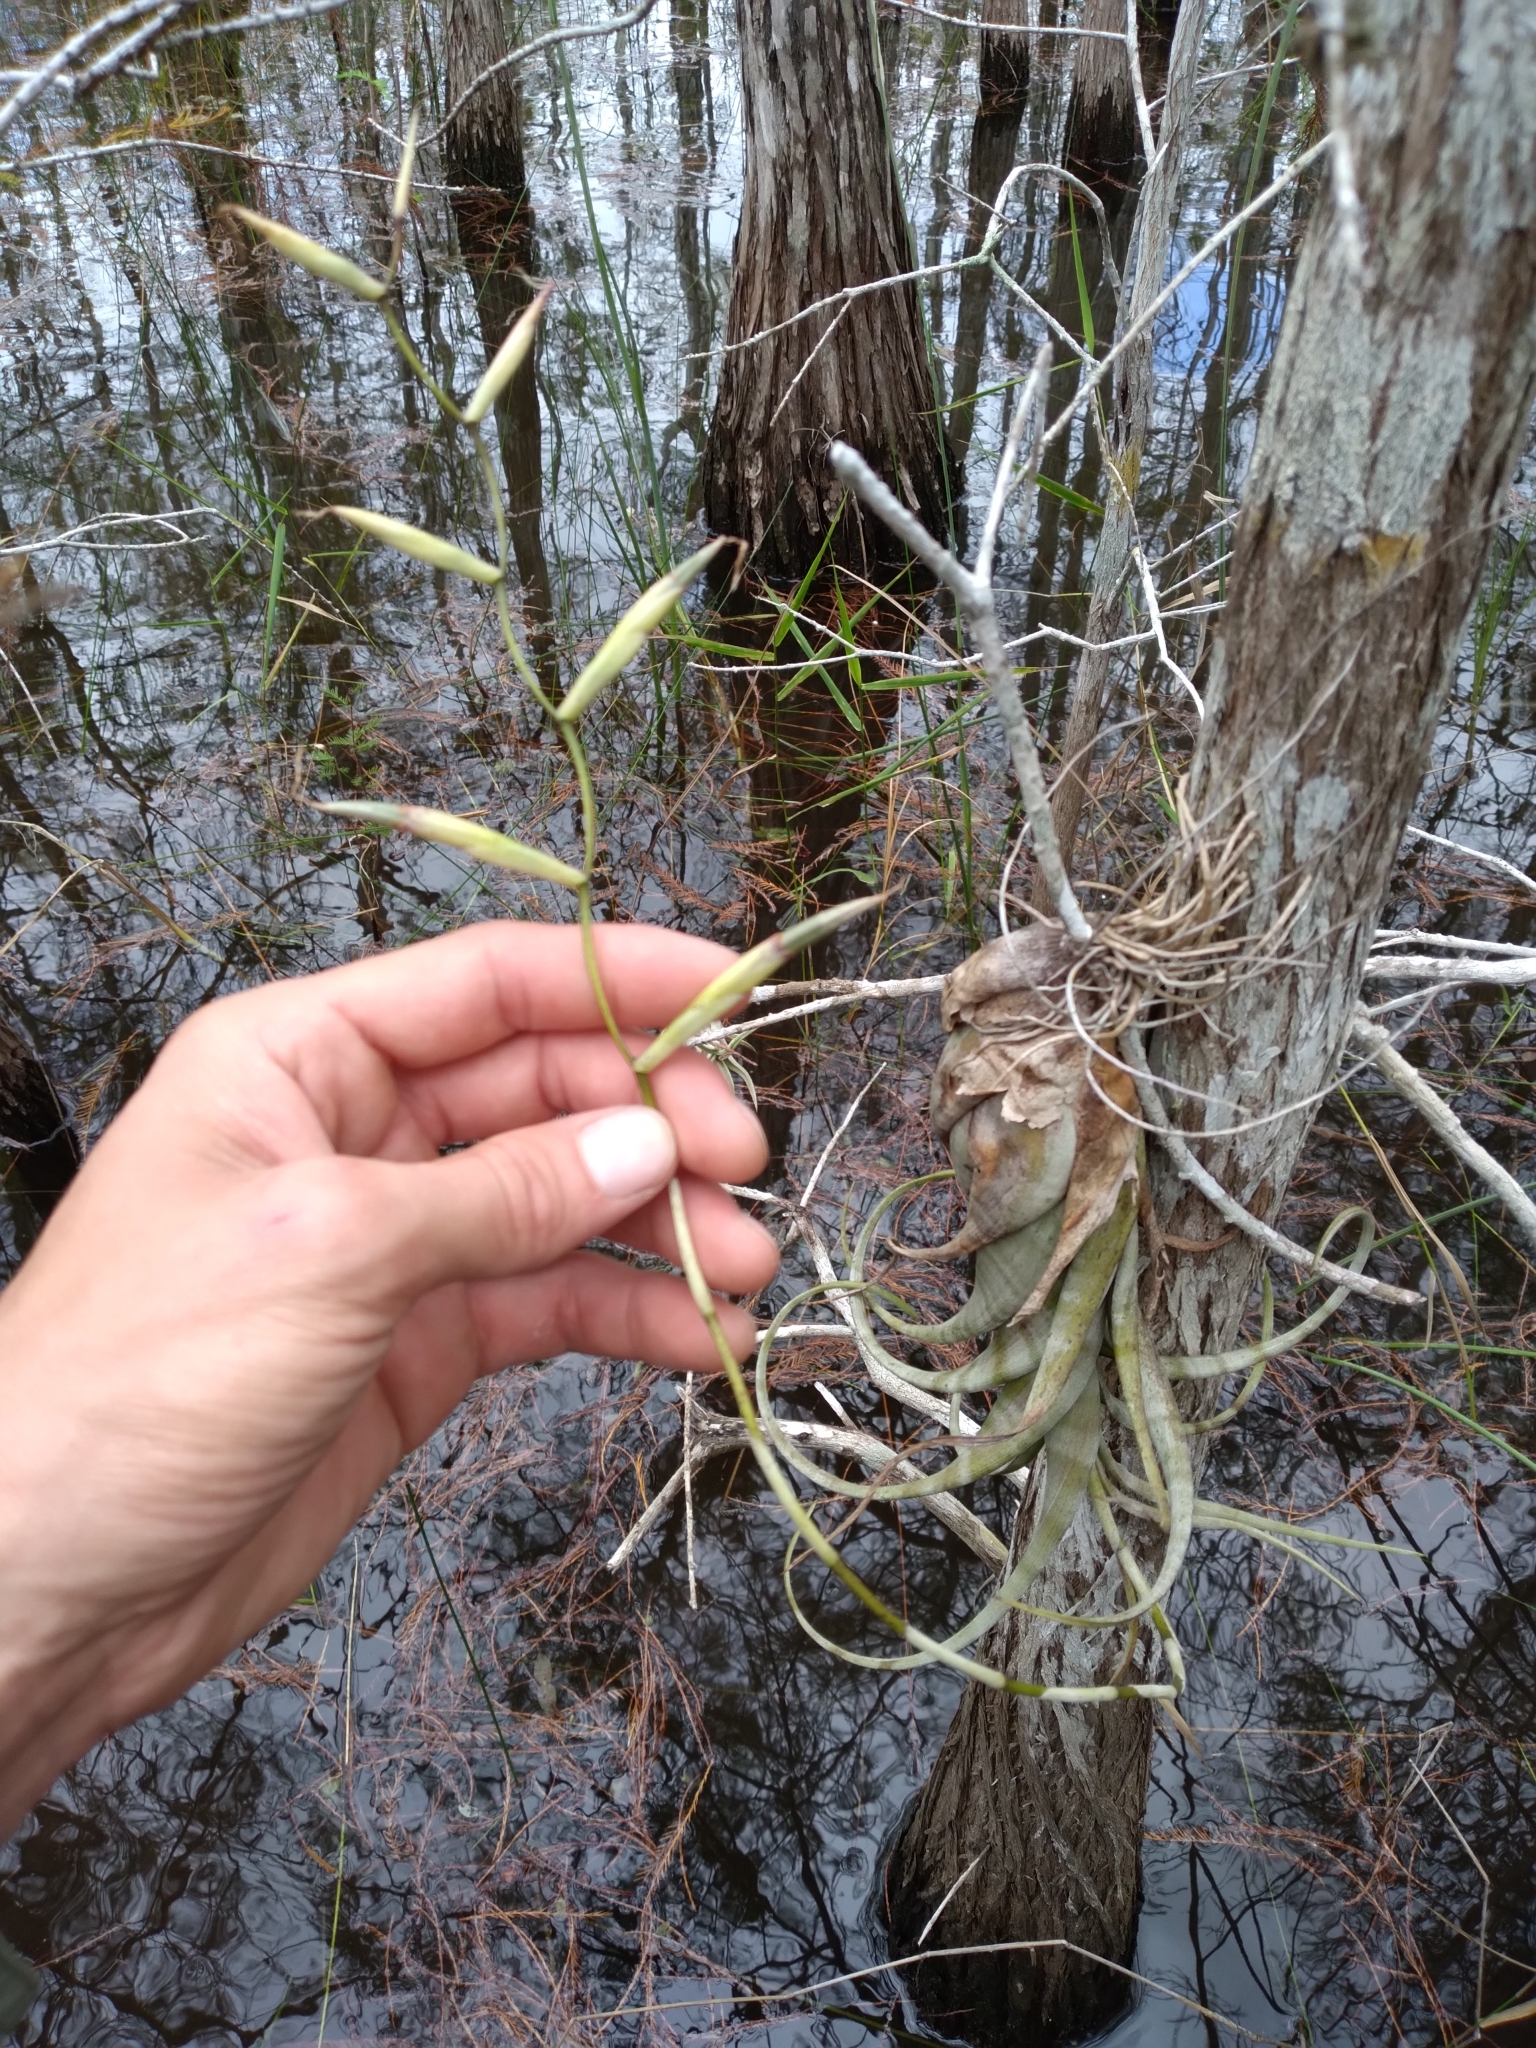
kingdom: Plantae
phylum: Tracheophyta
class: Liliopsida
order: Poales
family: Bromeliaceae
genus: Tillandsia
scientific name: Tillandsia flexuosa
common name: Banded airplant
